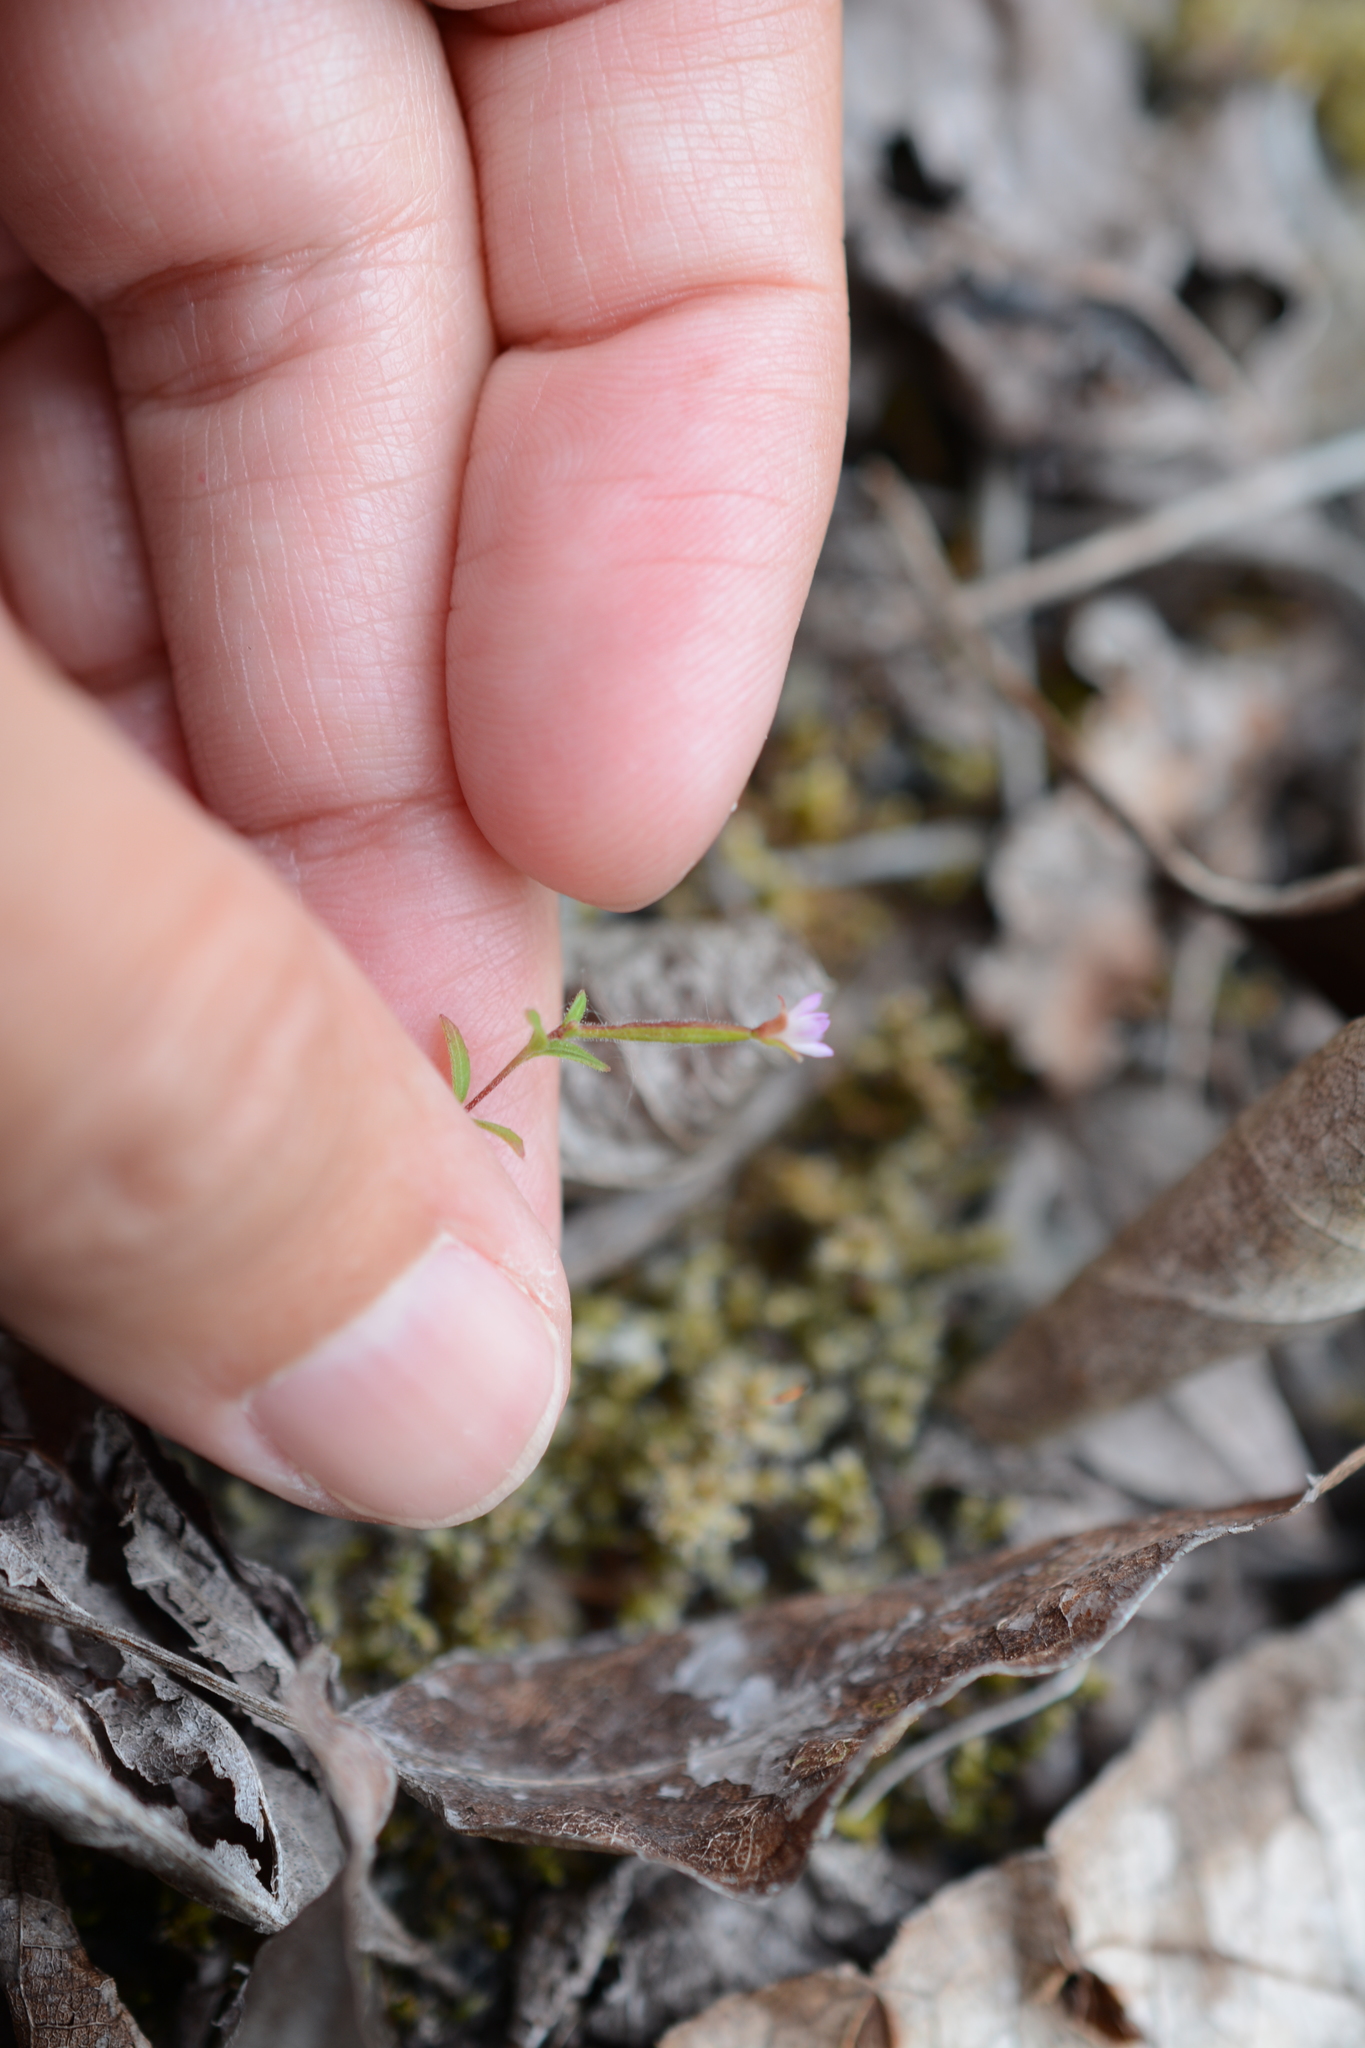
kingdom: Plantae
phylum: Tracheophyta
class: Magnoliopsida
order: Myrtales
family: Onagraceae
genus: Epilobium
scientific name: Epilobium minutum
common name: Chaparral willowherb
